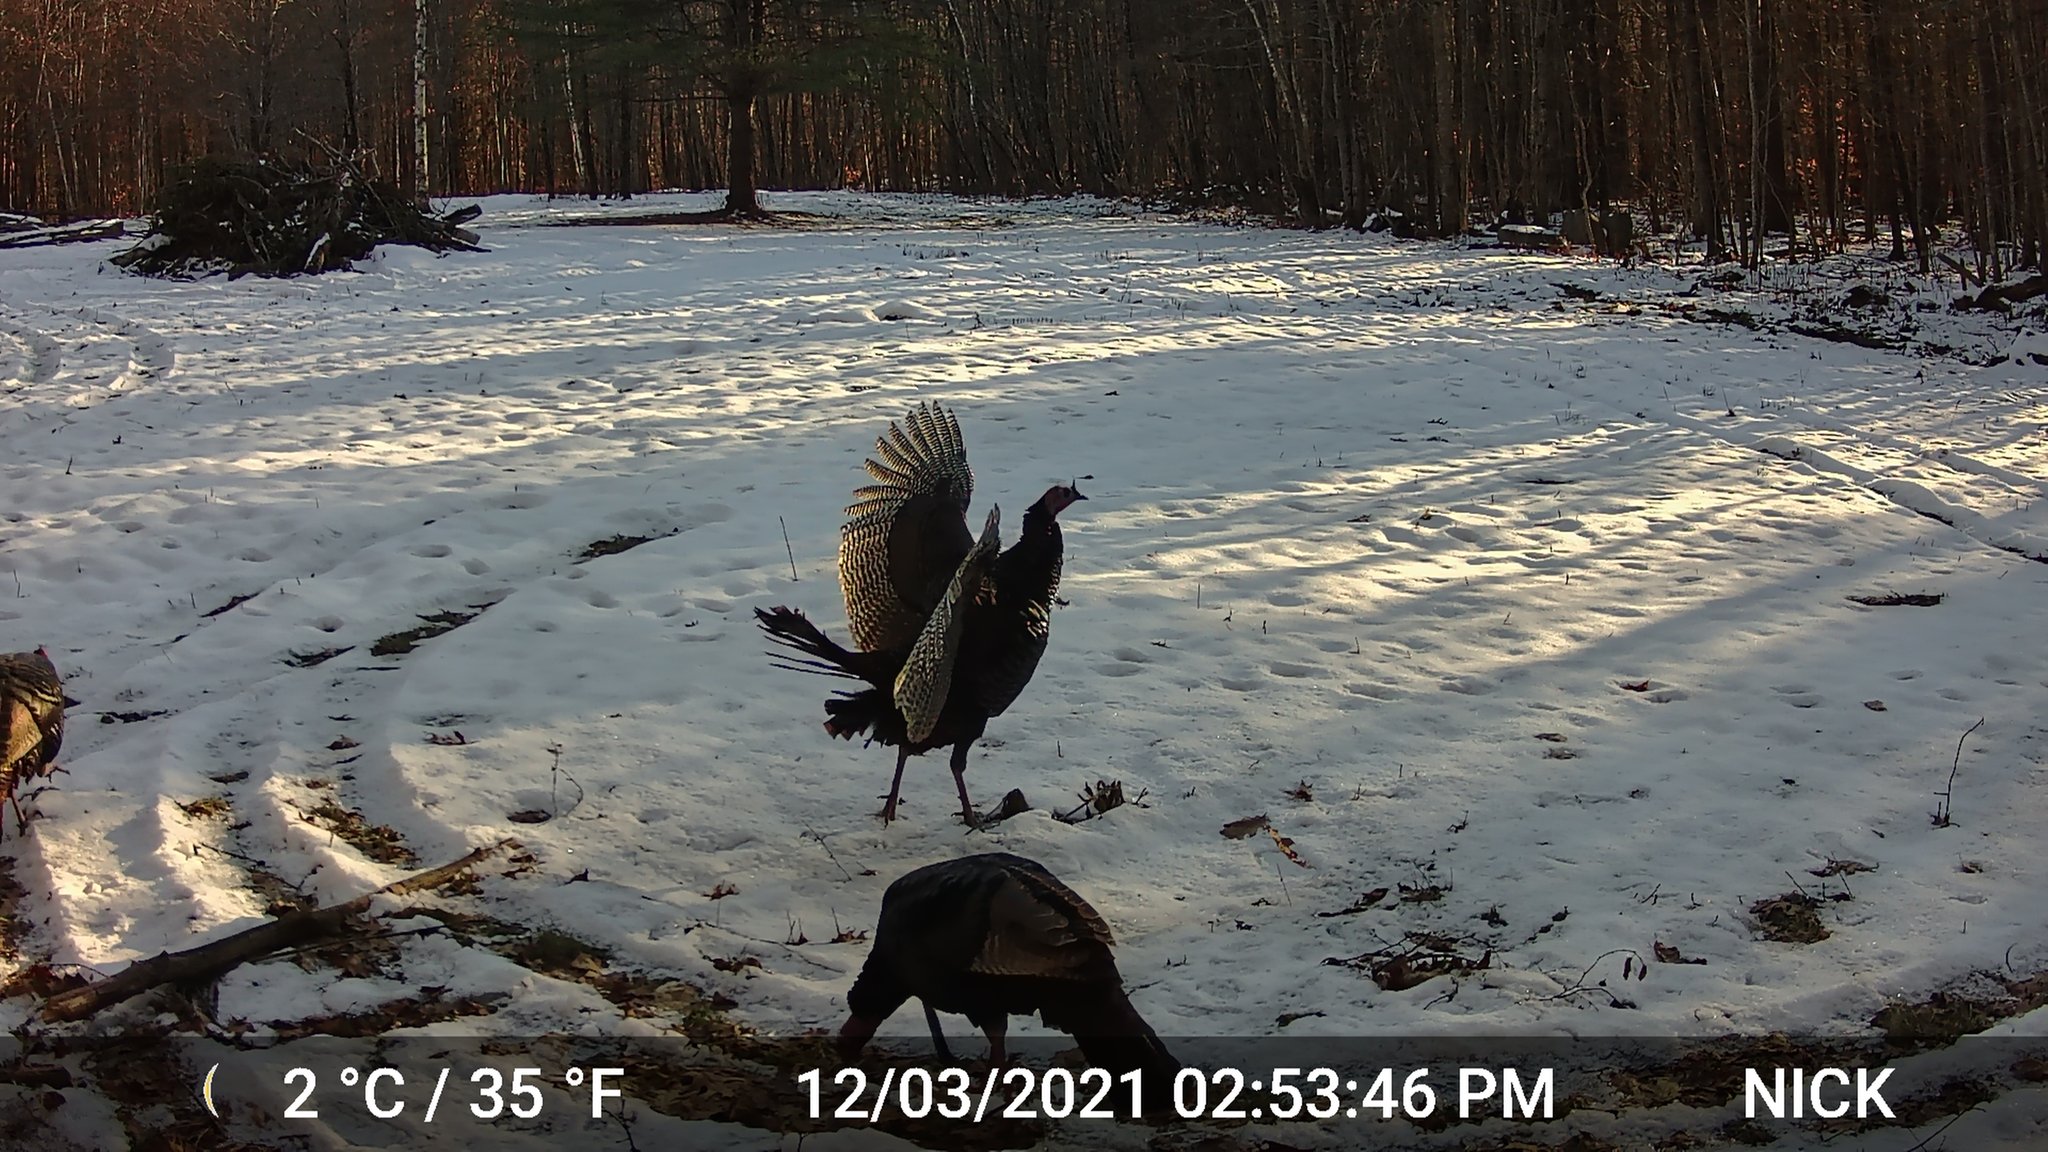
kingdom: Animalia
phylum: Chordata
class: Aves
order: Galliformes
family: Phasianidae
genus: Meleagris
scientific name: Meleagris gallopavo
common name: Wild turkey
